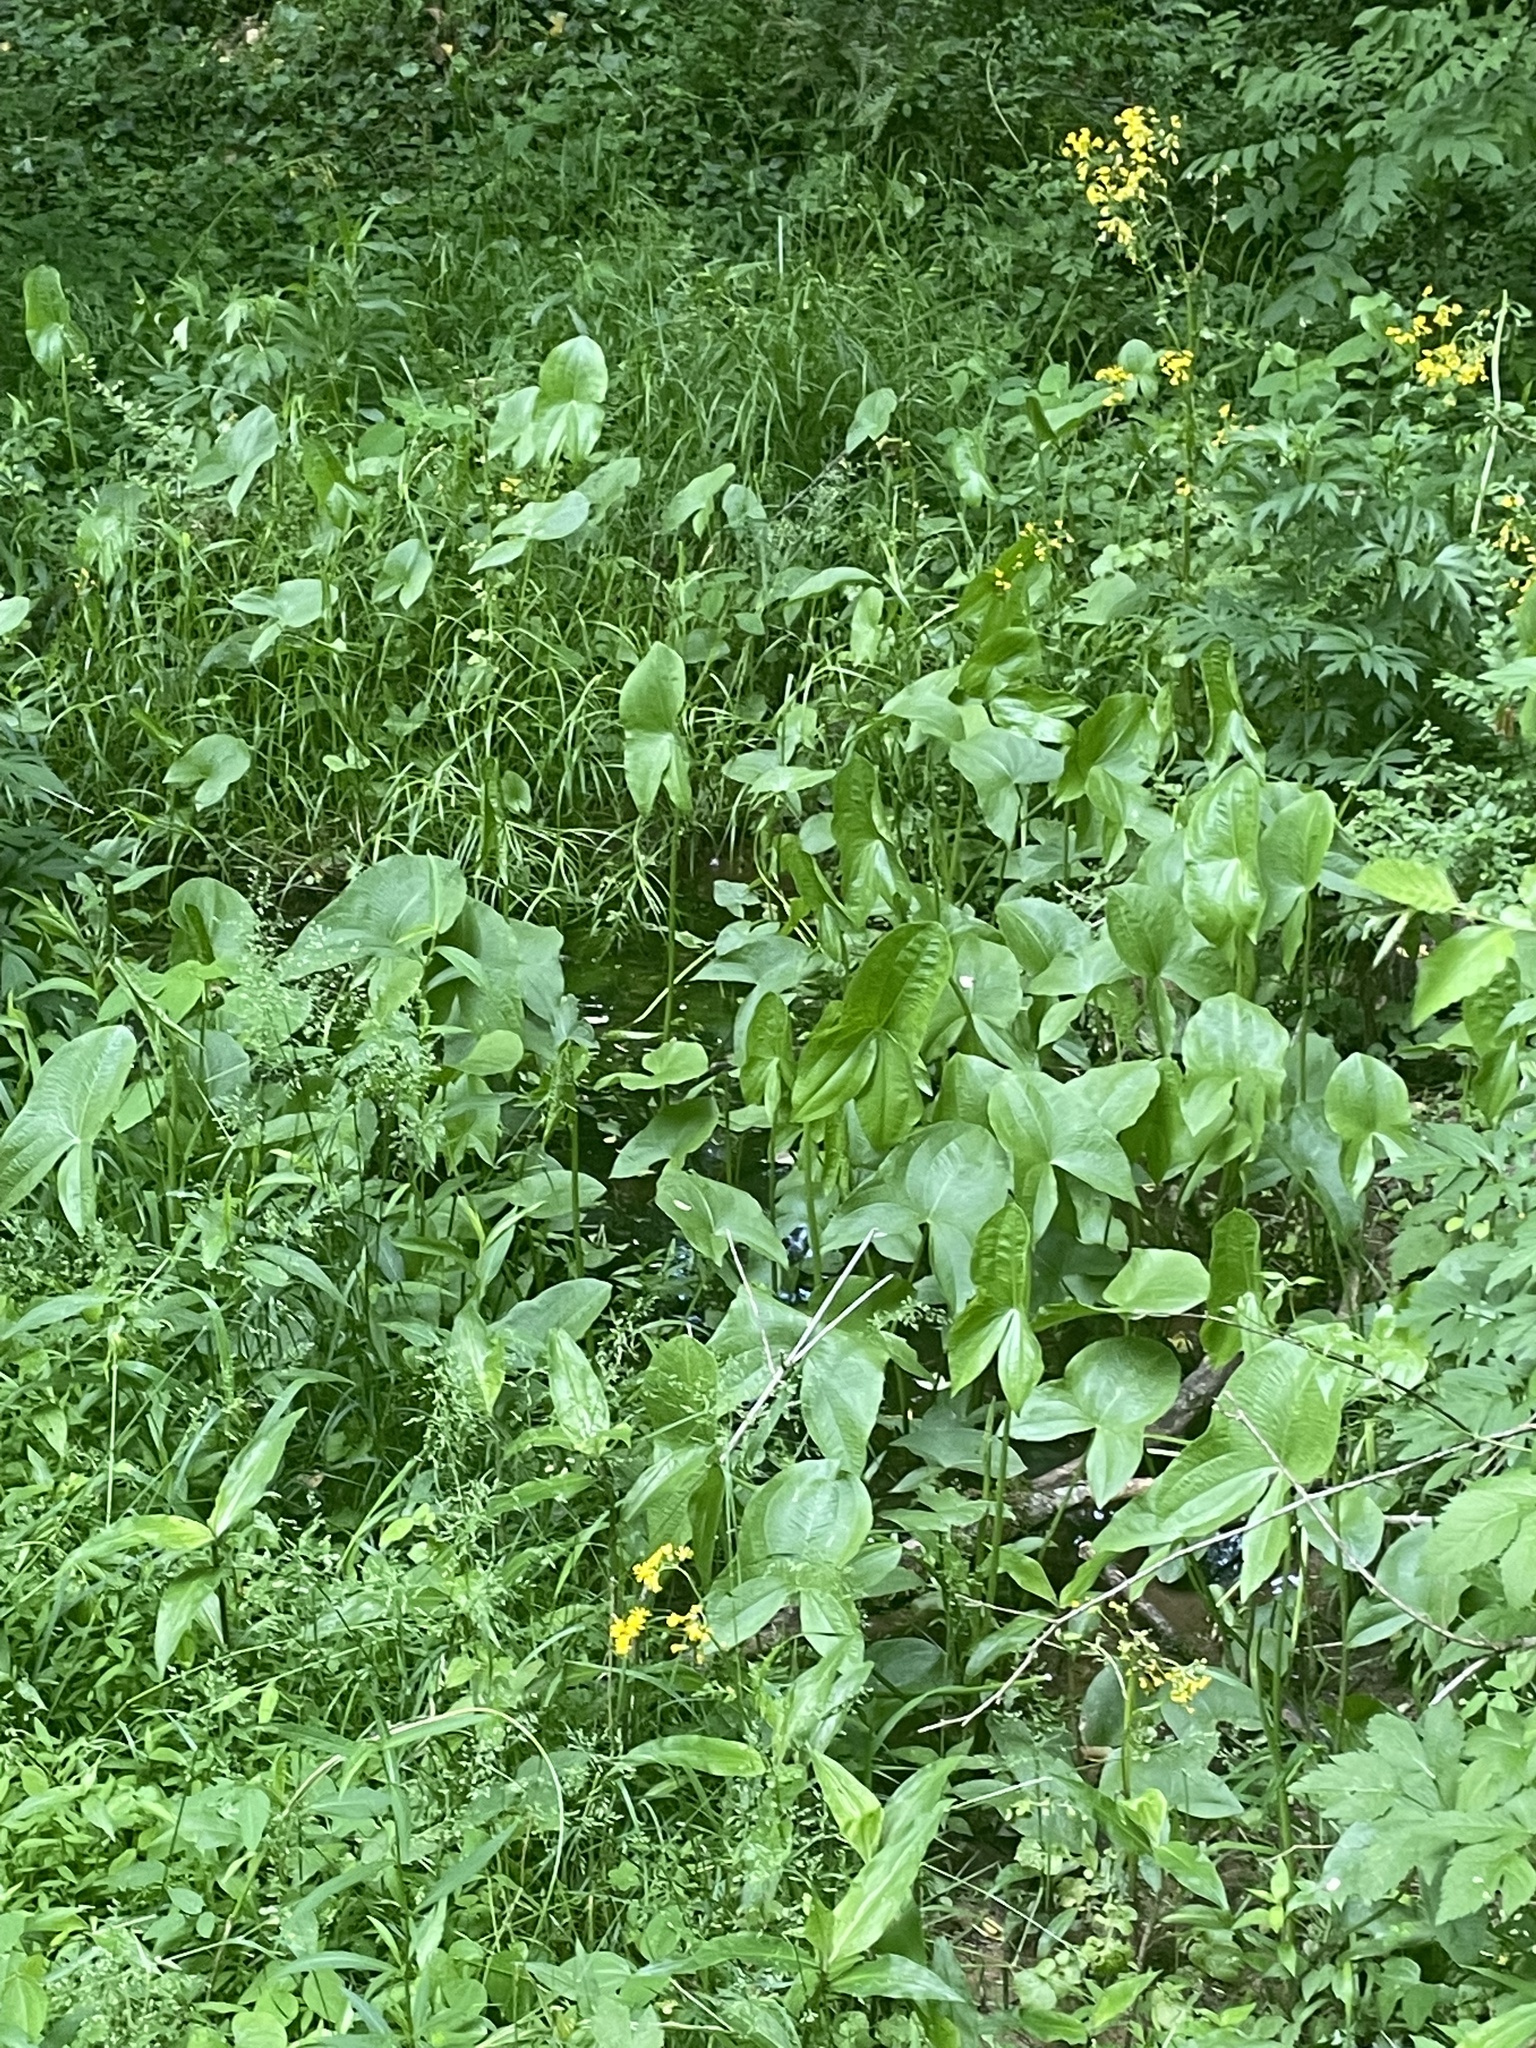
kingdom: Plantae
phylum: Tracheophyta
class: Liliopsida
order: Alismatales
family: Alismataceae
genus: Sagittaria
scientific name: Sagittaria latifolia
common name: Duck-potato
